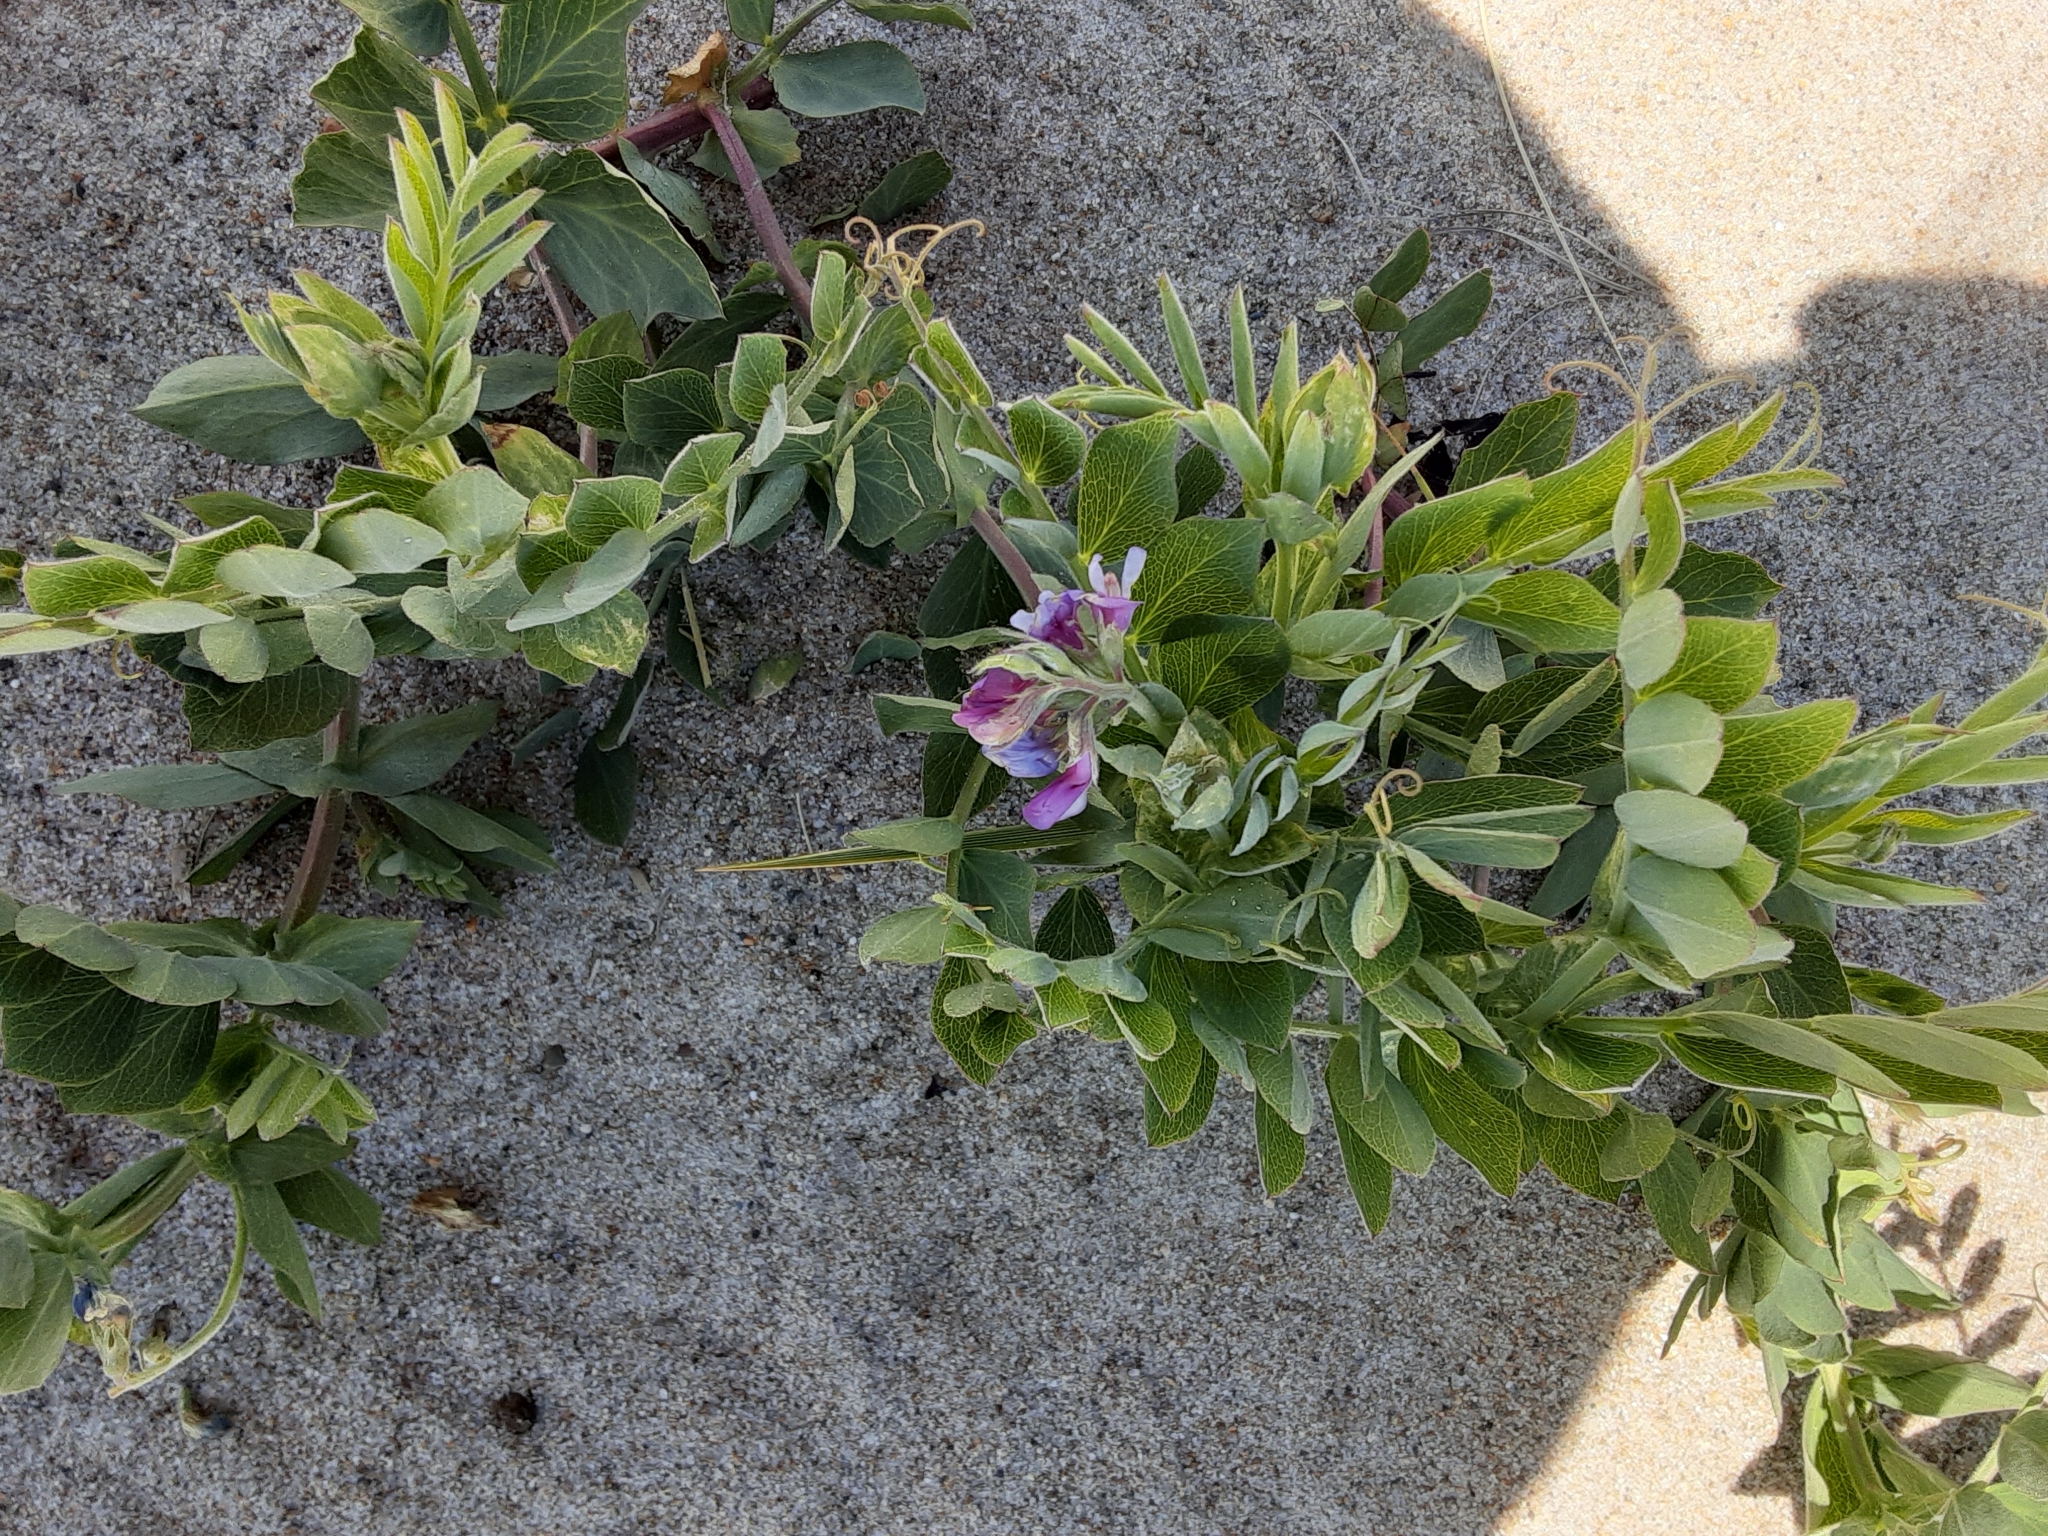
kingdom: Plantae
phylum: Tracheophyta
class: Magnoliopsida
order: Fabales
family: Fabaceae
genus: Lathyrus
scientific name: Lathyrus japonicus
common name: Sea pea
